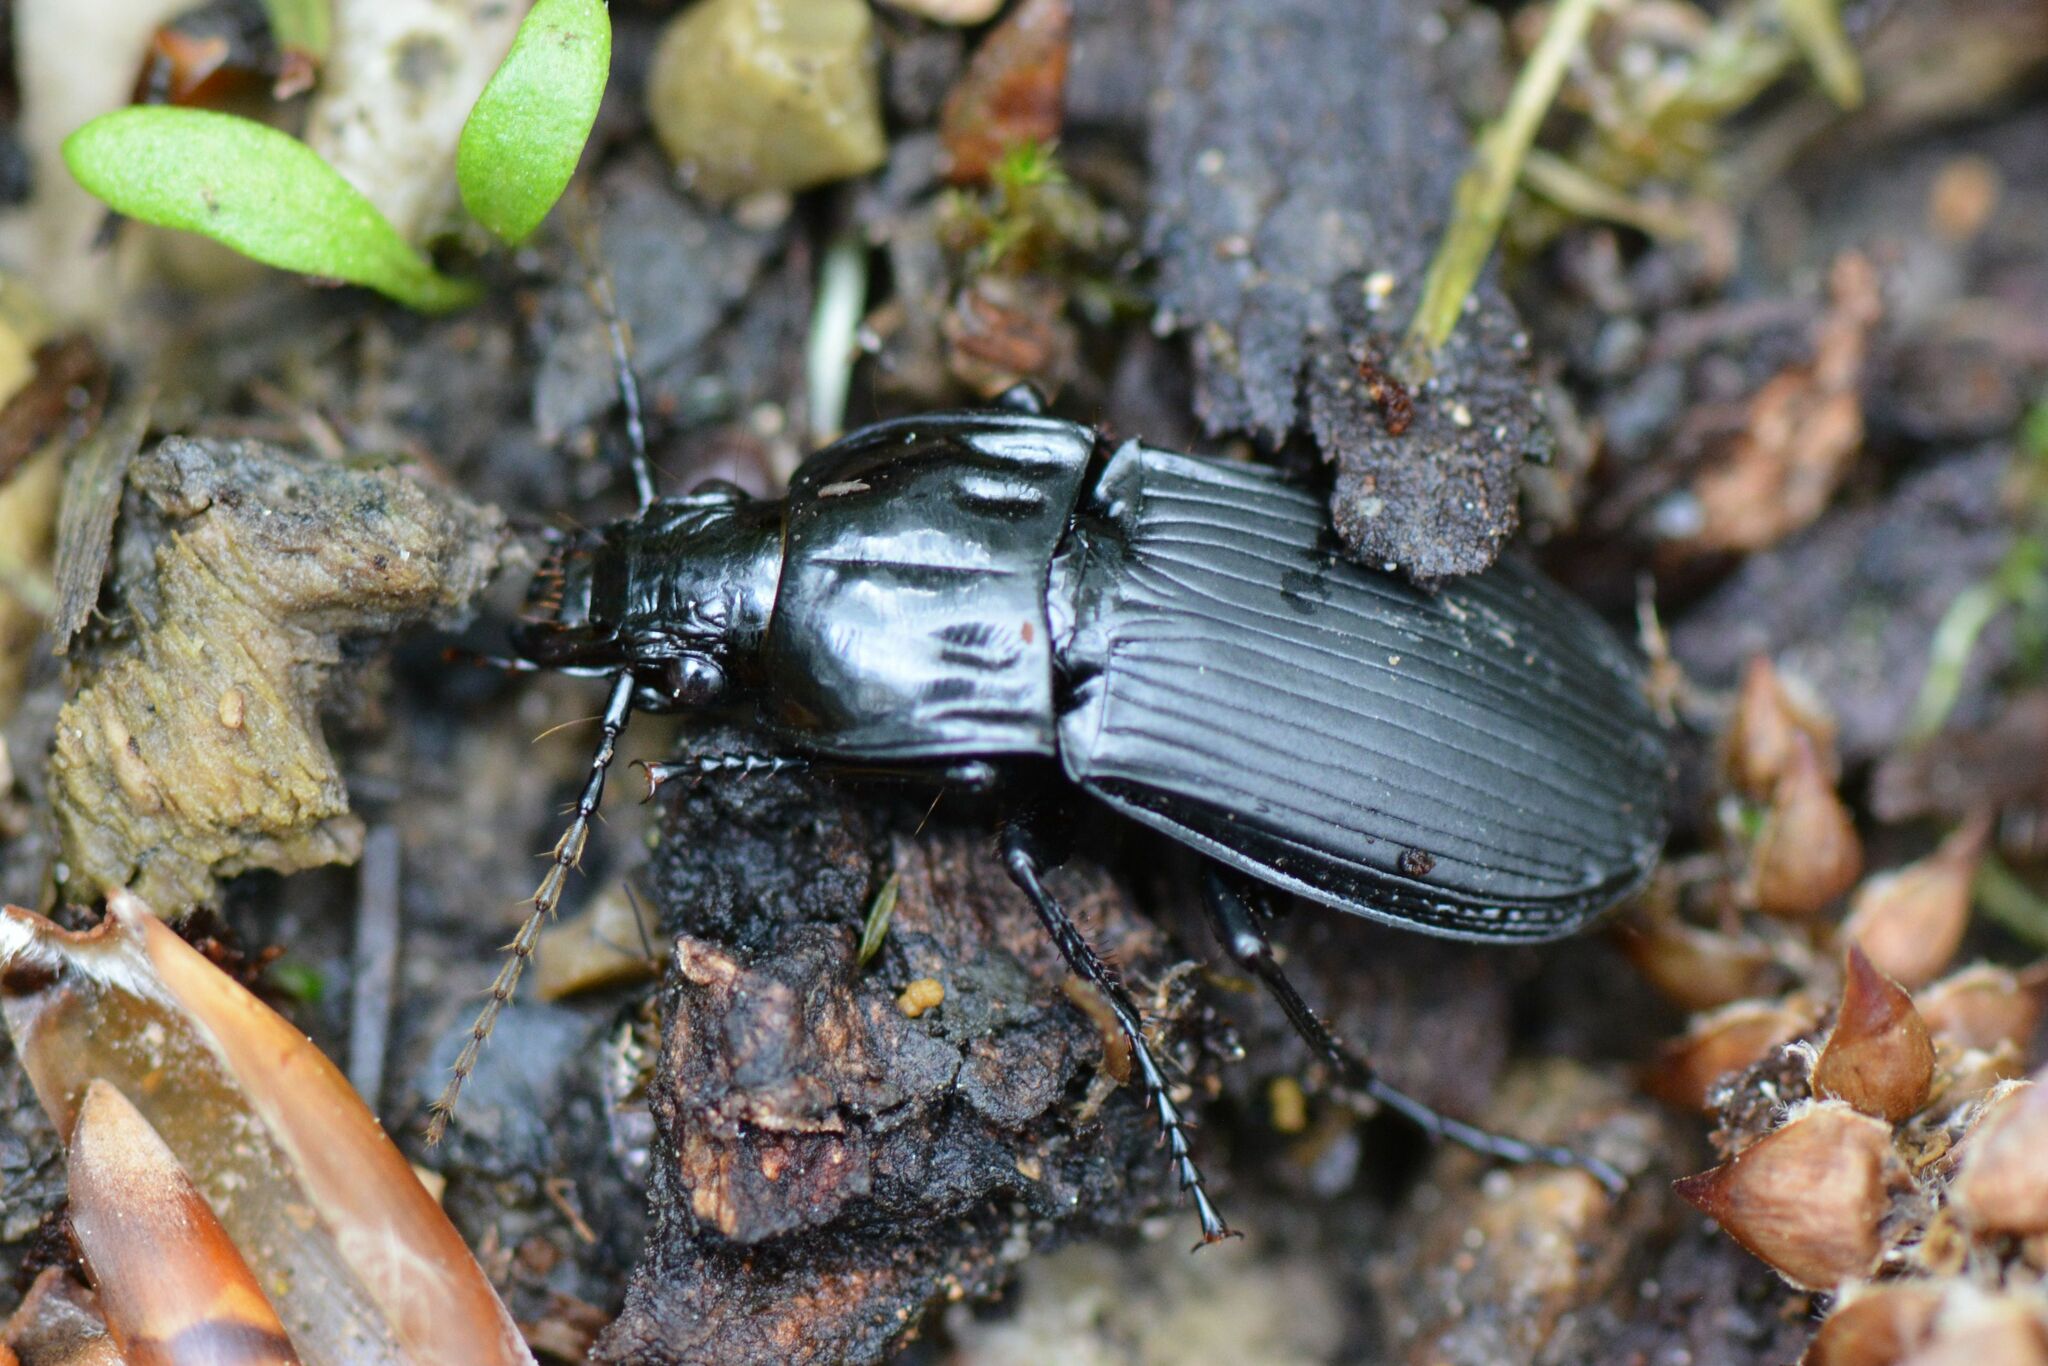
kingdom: Animalia
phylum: Arthropoda
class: Insecta
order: Coleoptera
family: Carabidae
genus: Abax
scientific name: Abax parallelepipedus
